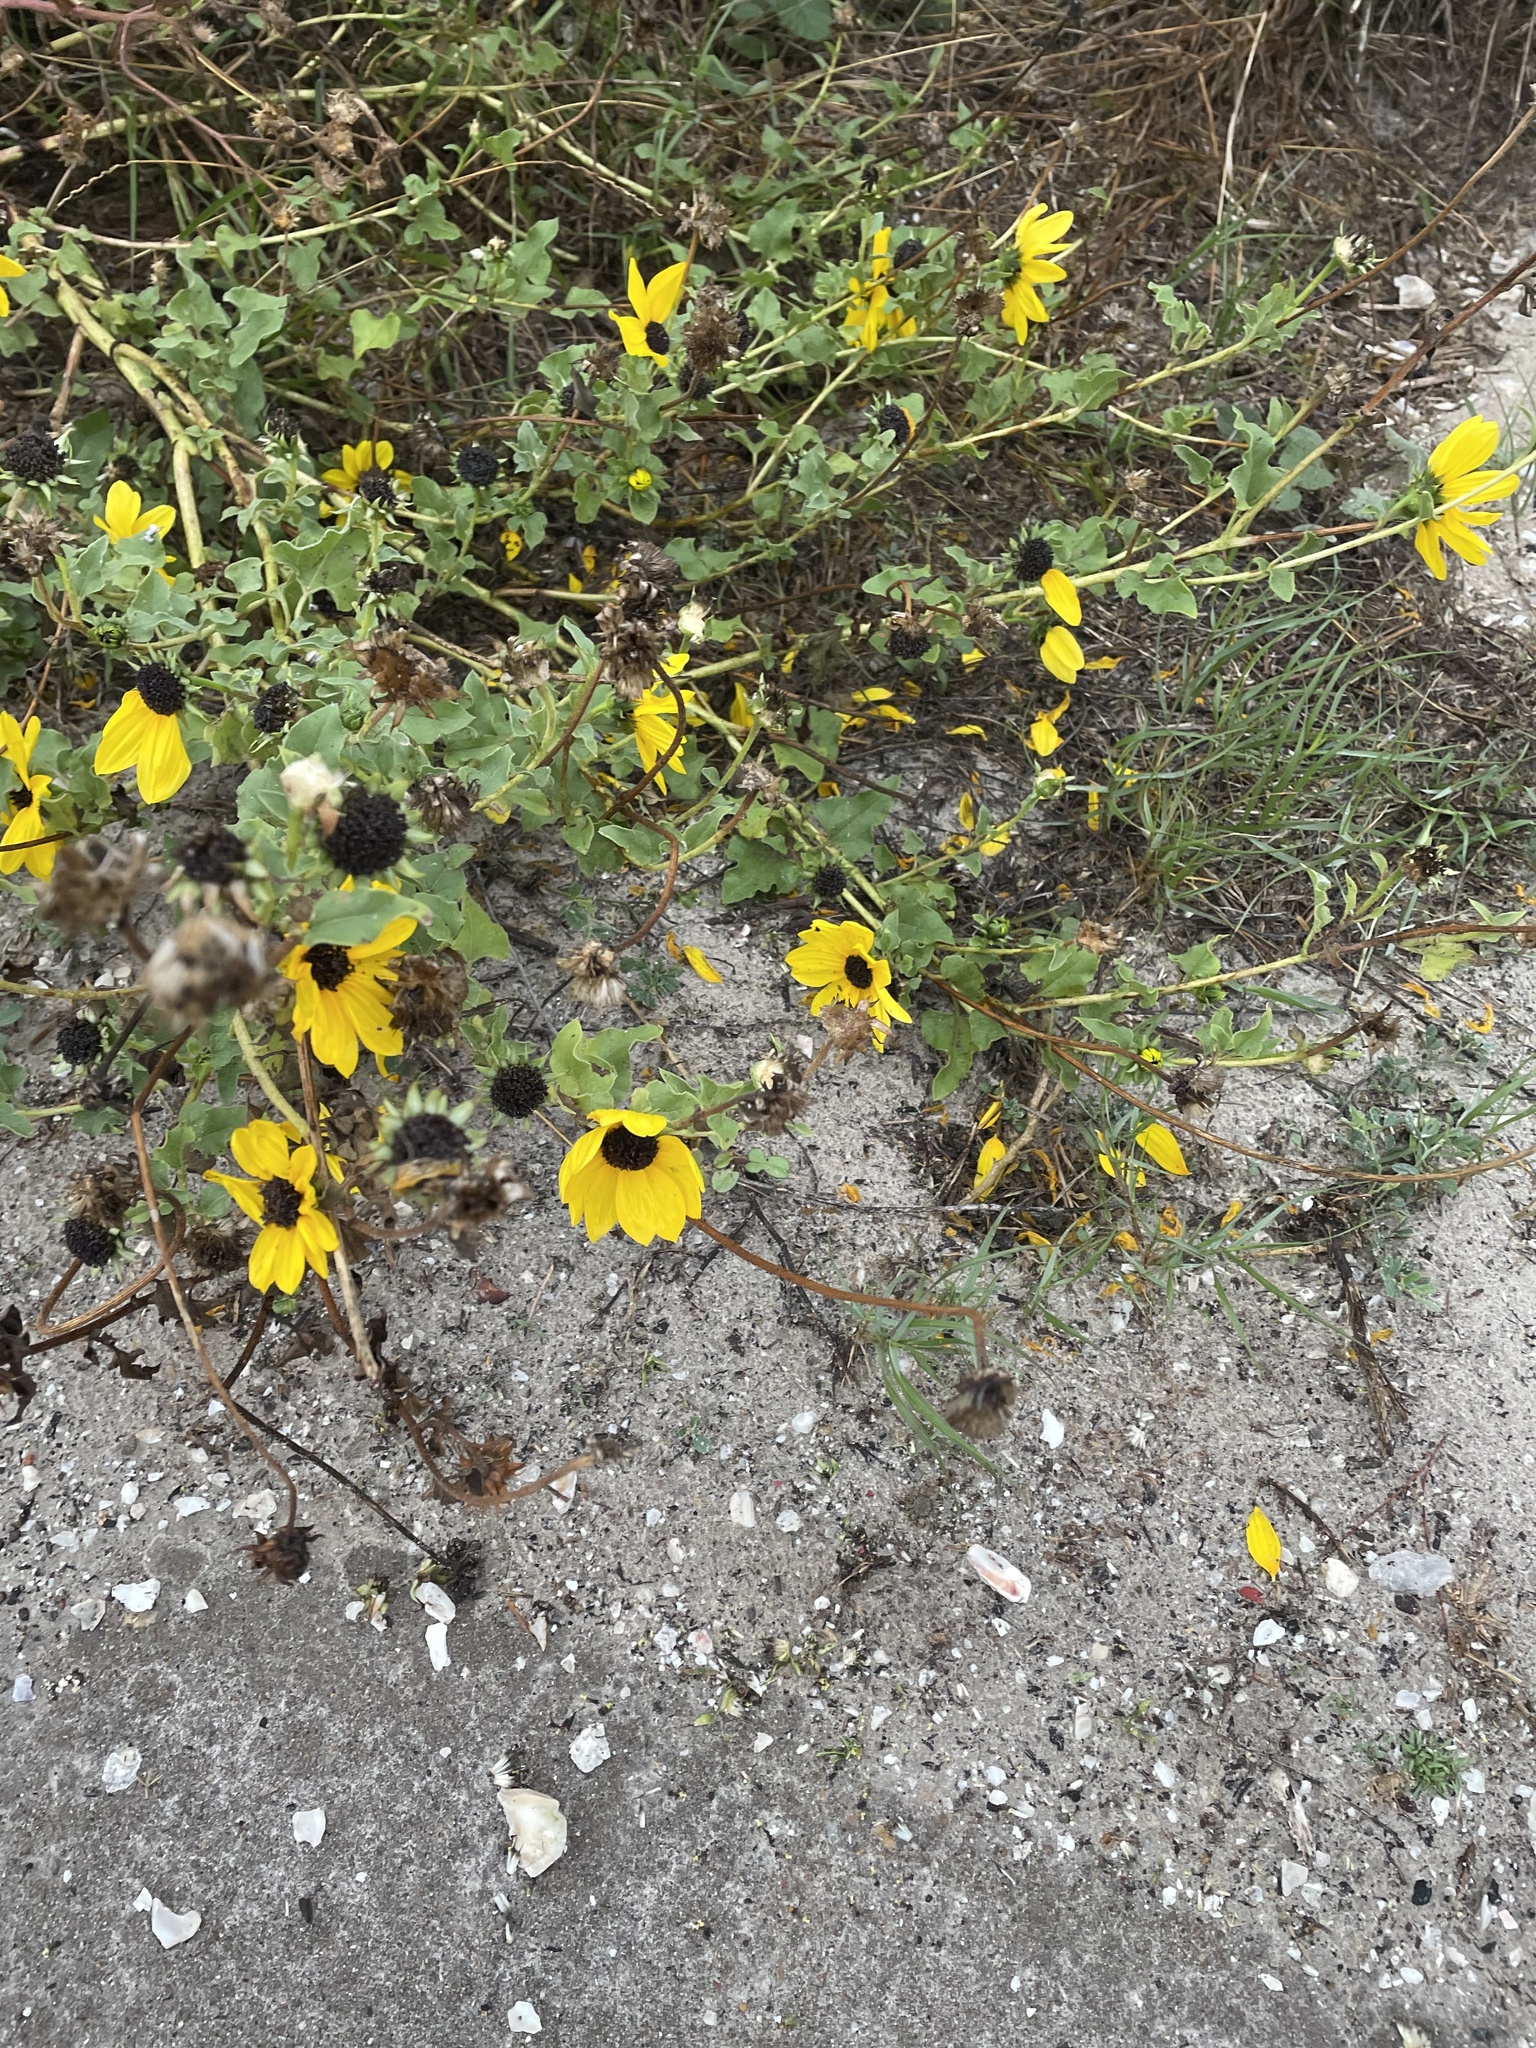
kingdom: Plantae
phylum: Tracheophyta
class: Magnoliopsida
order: Asterales
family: Asteraceae
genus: Helianthus
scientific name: Helianthus praecox
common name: Texas sunflower
